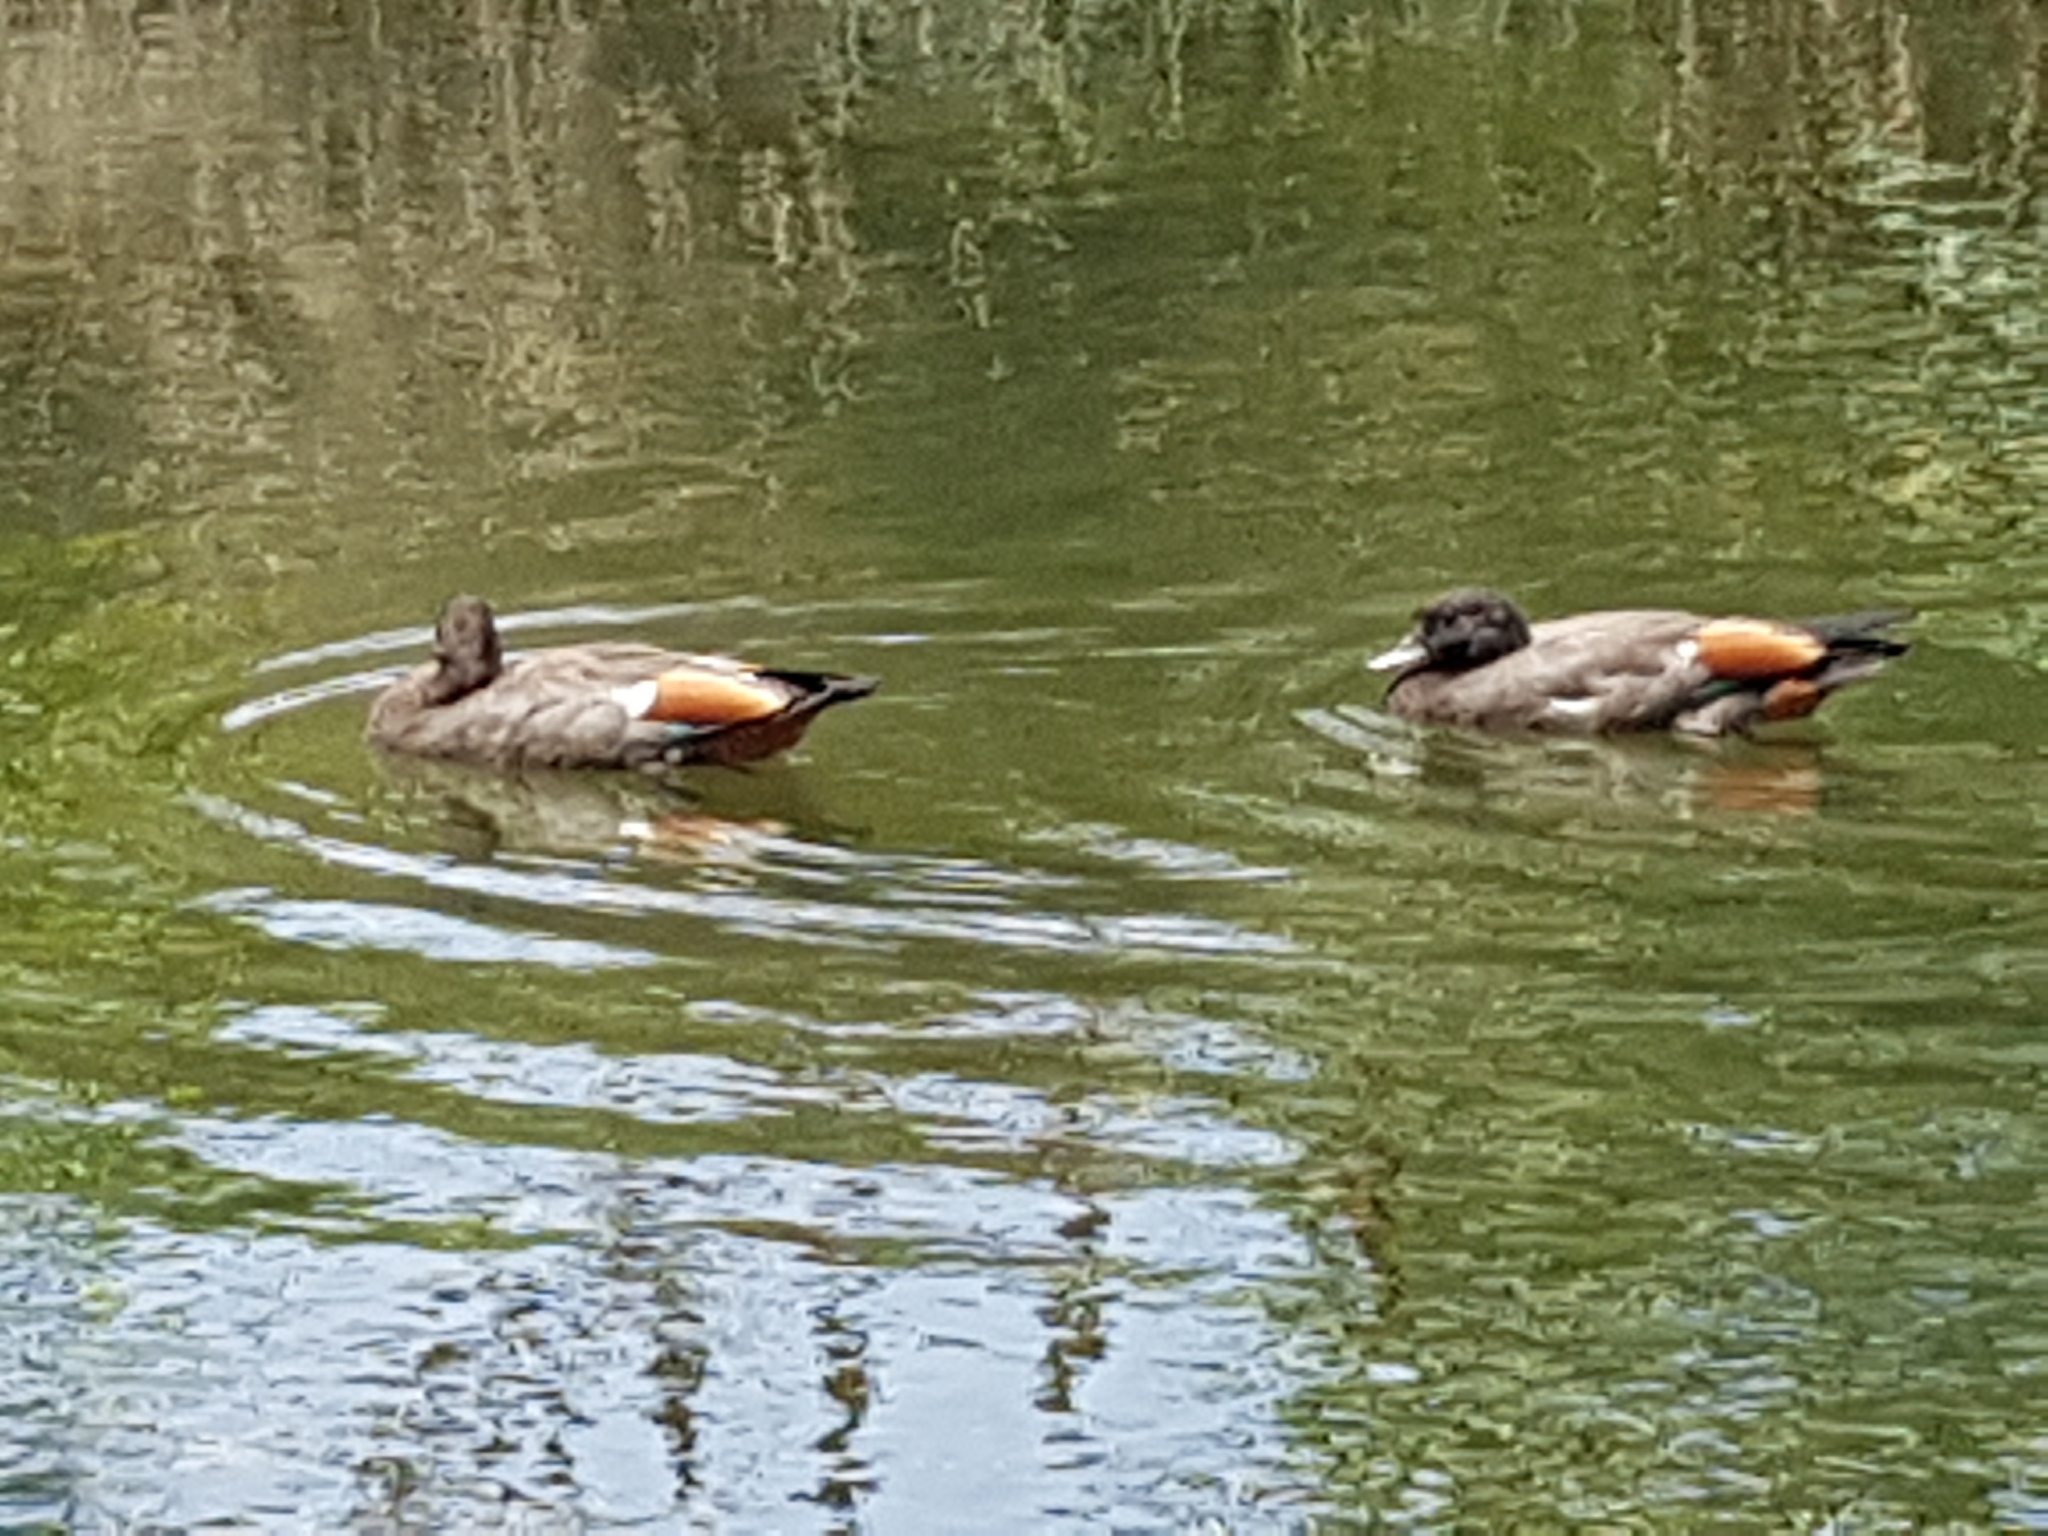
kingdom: Animalia
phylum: Chordata
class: Aves
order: Anseriformes
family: Anatidae
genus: Tadorna
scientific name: Tadorna variegata
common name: Paradise shelduck
